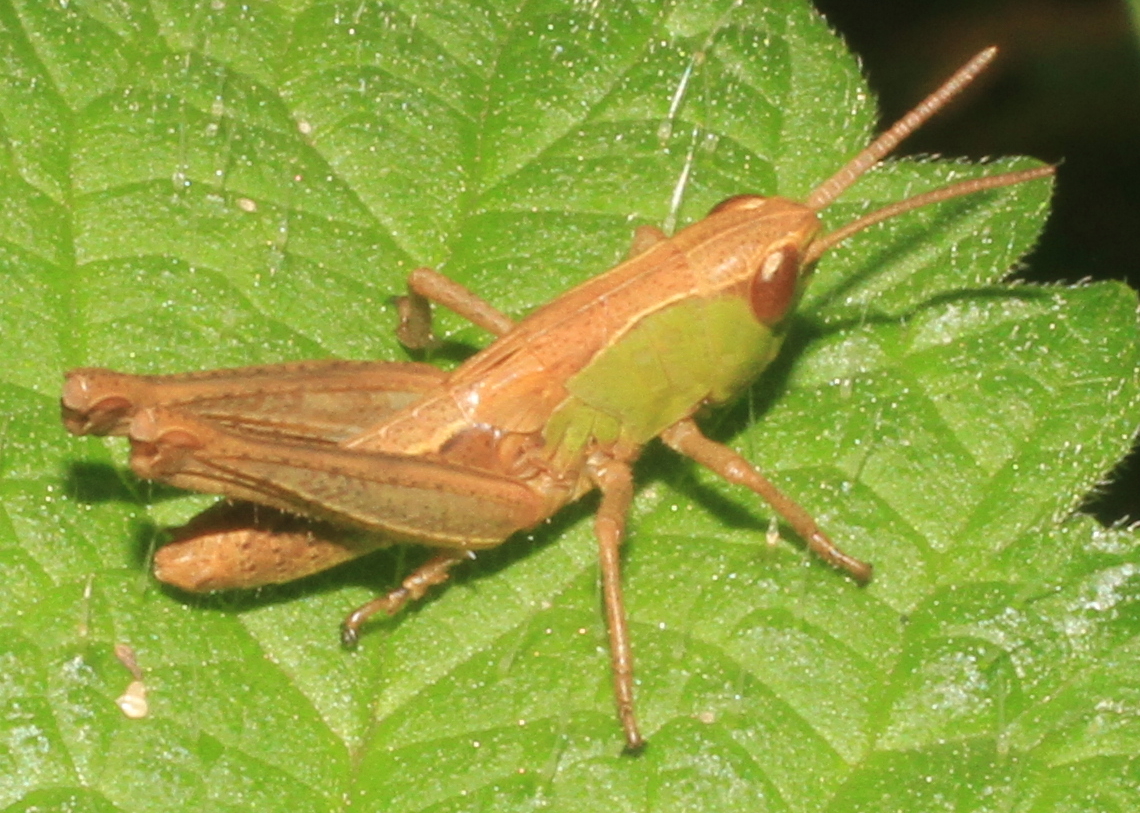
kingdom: Animalia
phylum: Arthropoda
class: Insecta
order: Orthoptera
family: Acrididae
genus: Pseudochorthippus
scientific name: Pseudochorthippus parallelus
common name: Meadow grasshopper
